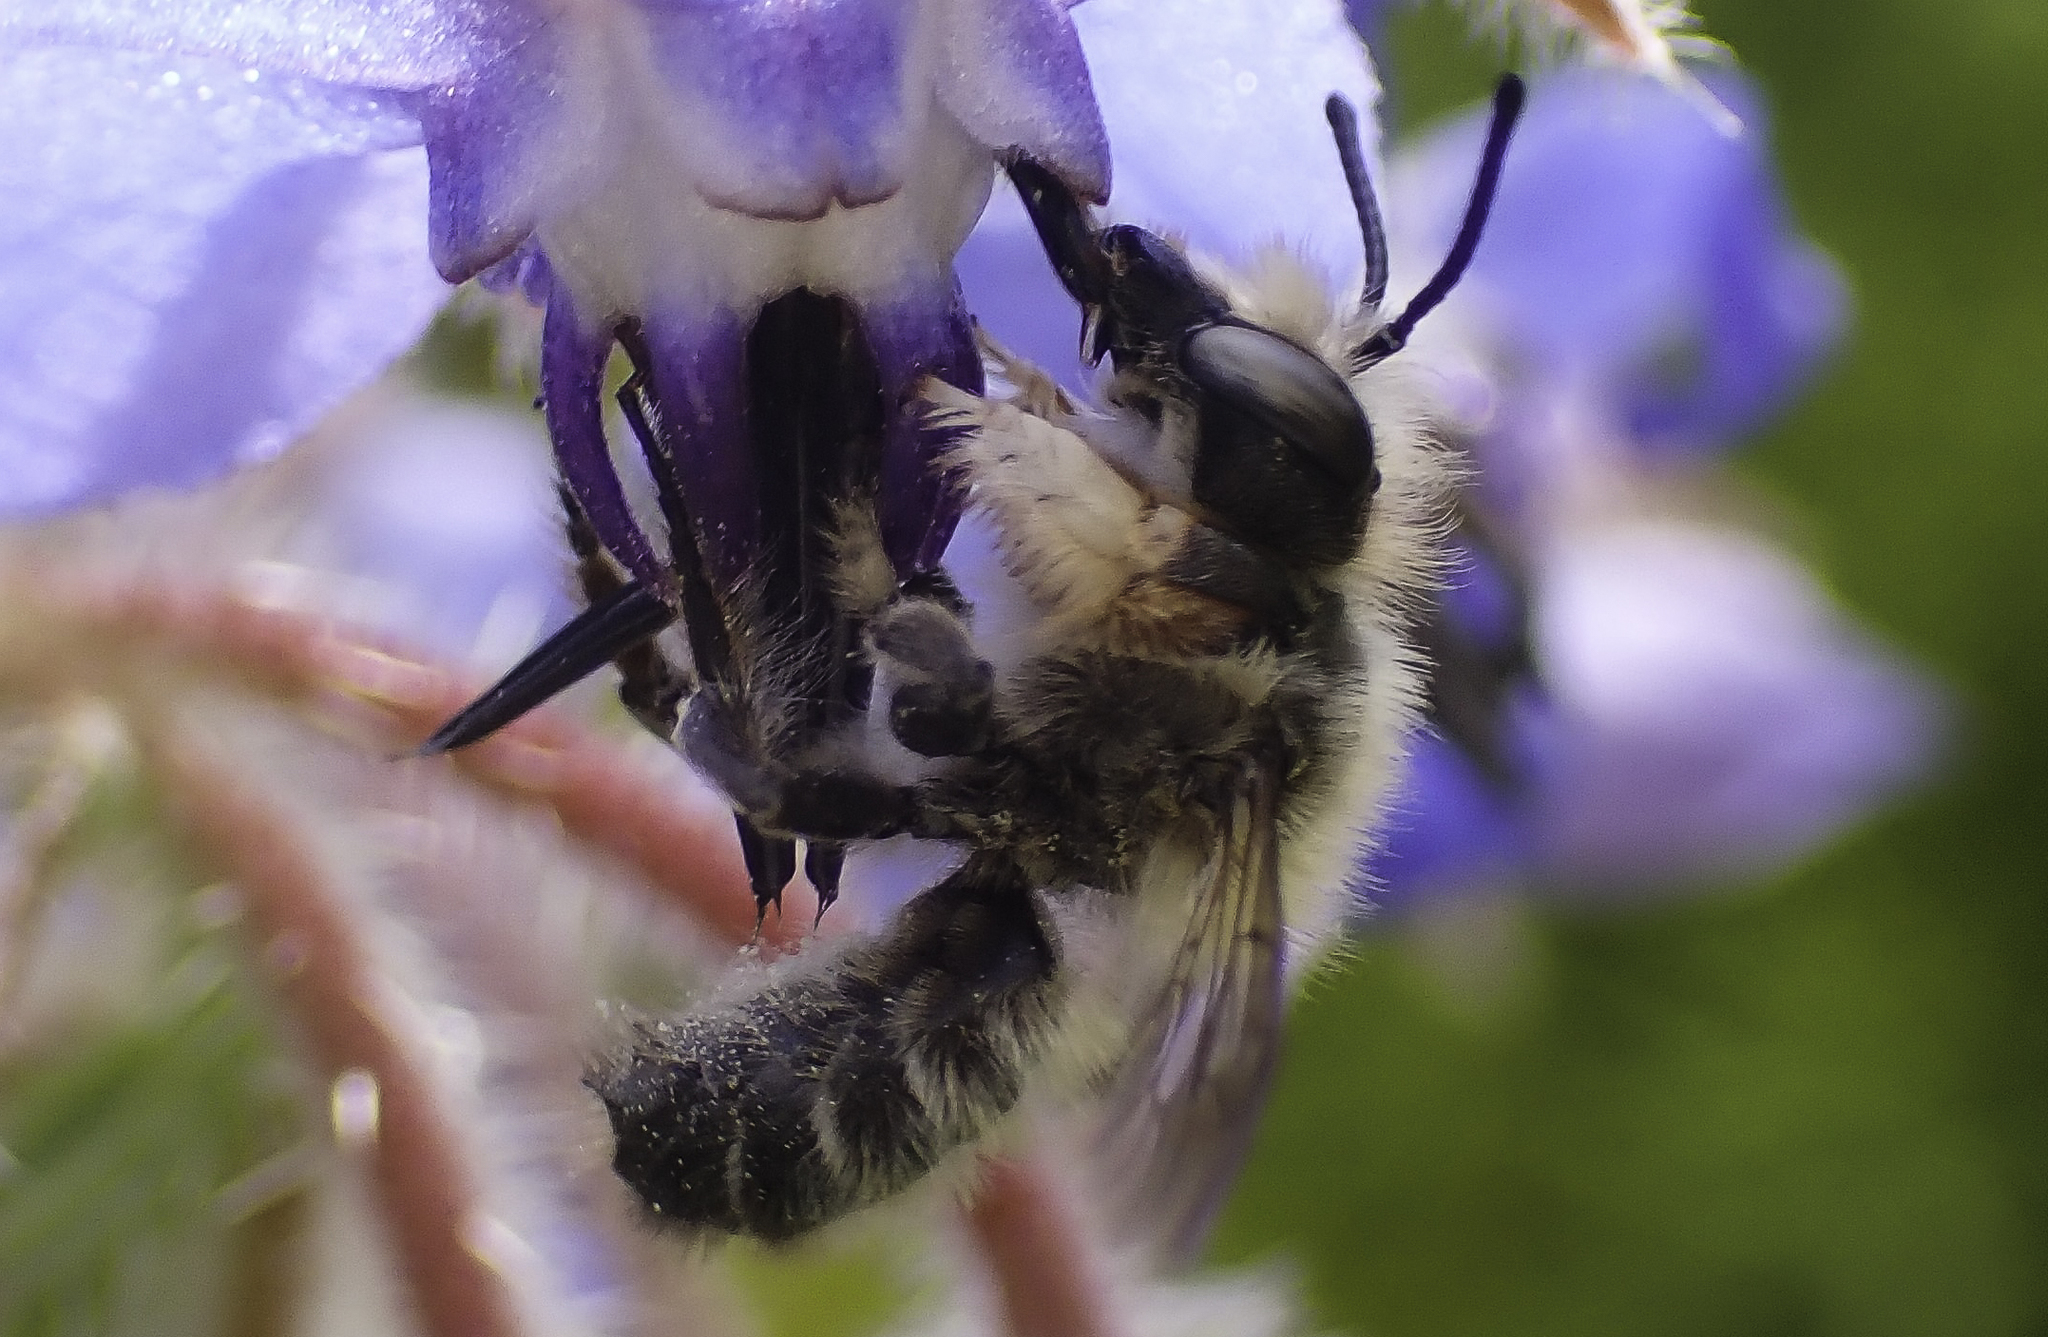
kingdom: Animalia
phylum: Arthropoda
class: Insecta
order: Hymenoptera
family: Megachilidae
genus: Megachile
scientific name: Megachile willughbiella
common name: Willughby's leafcutter bee
